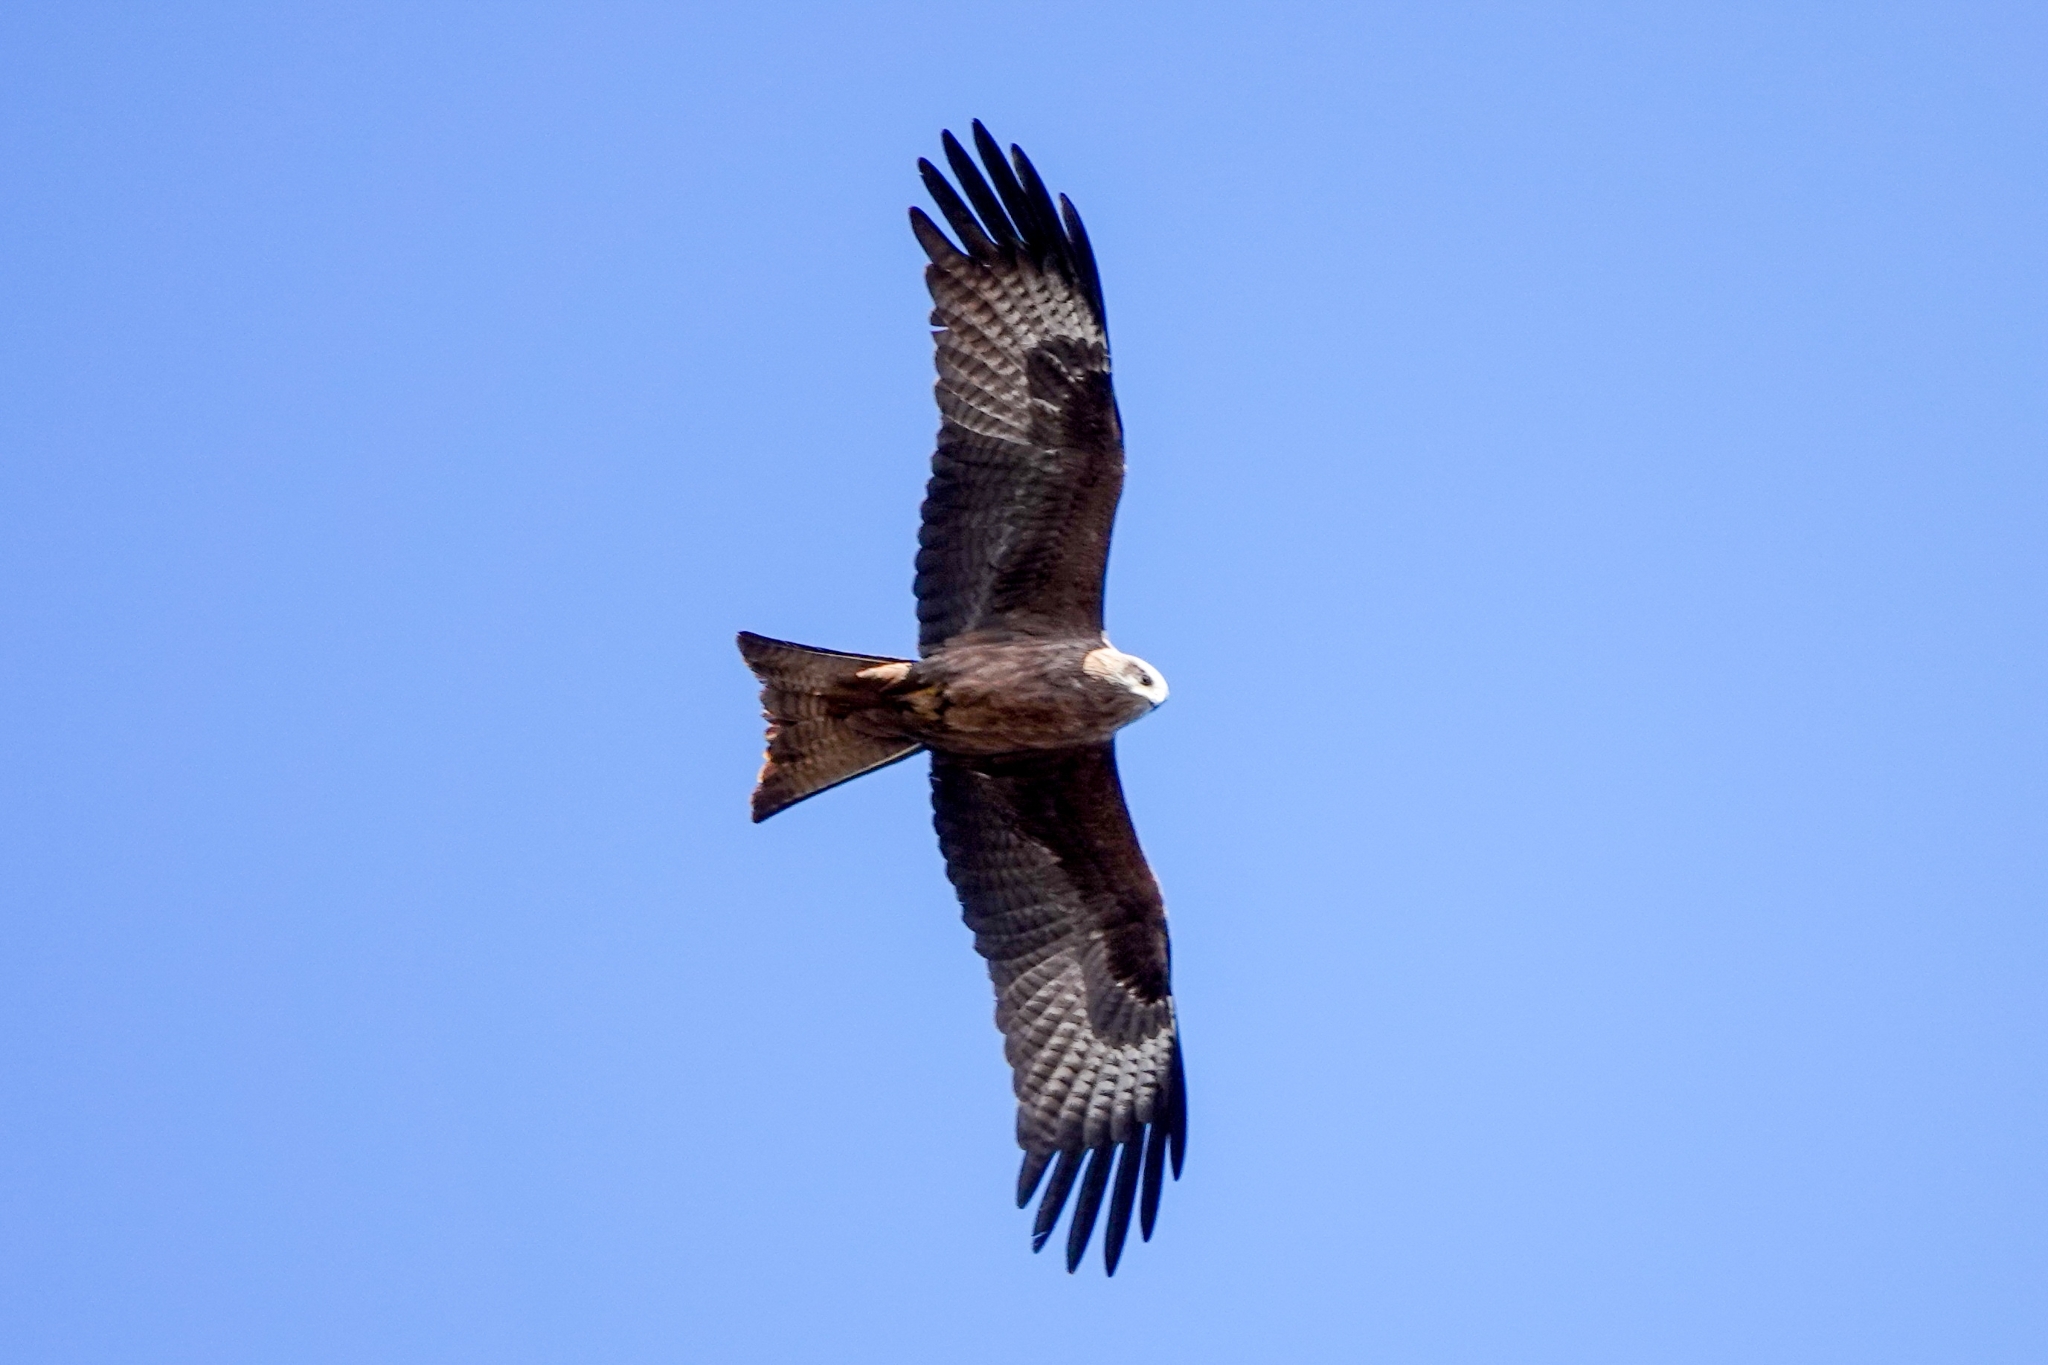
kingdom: Animalia
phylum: Chordata
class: Aves
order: Accipitriformes
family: Accipitridae
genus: Milvus
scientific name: Milvus migrans
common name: Black kite
